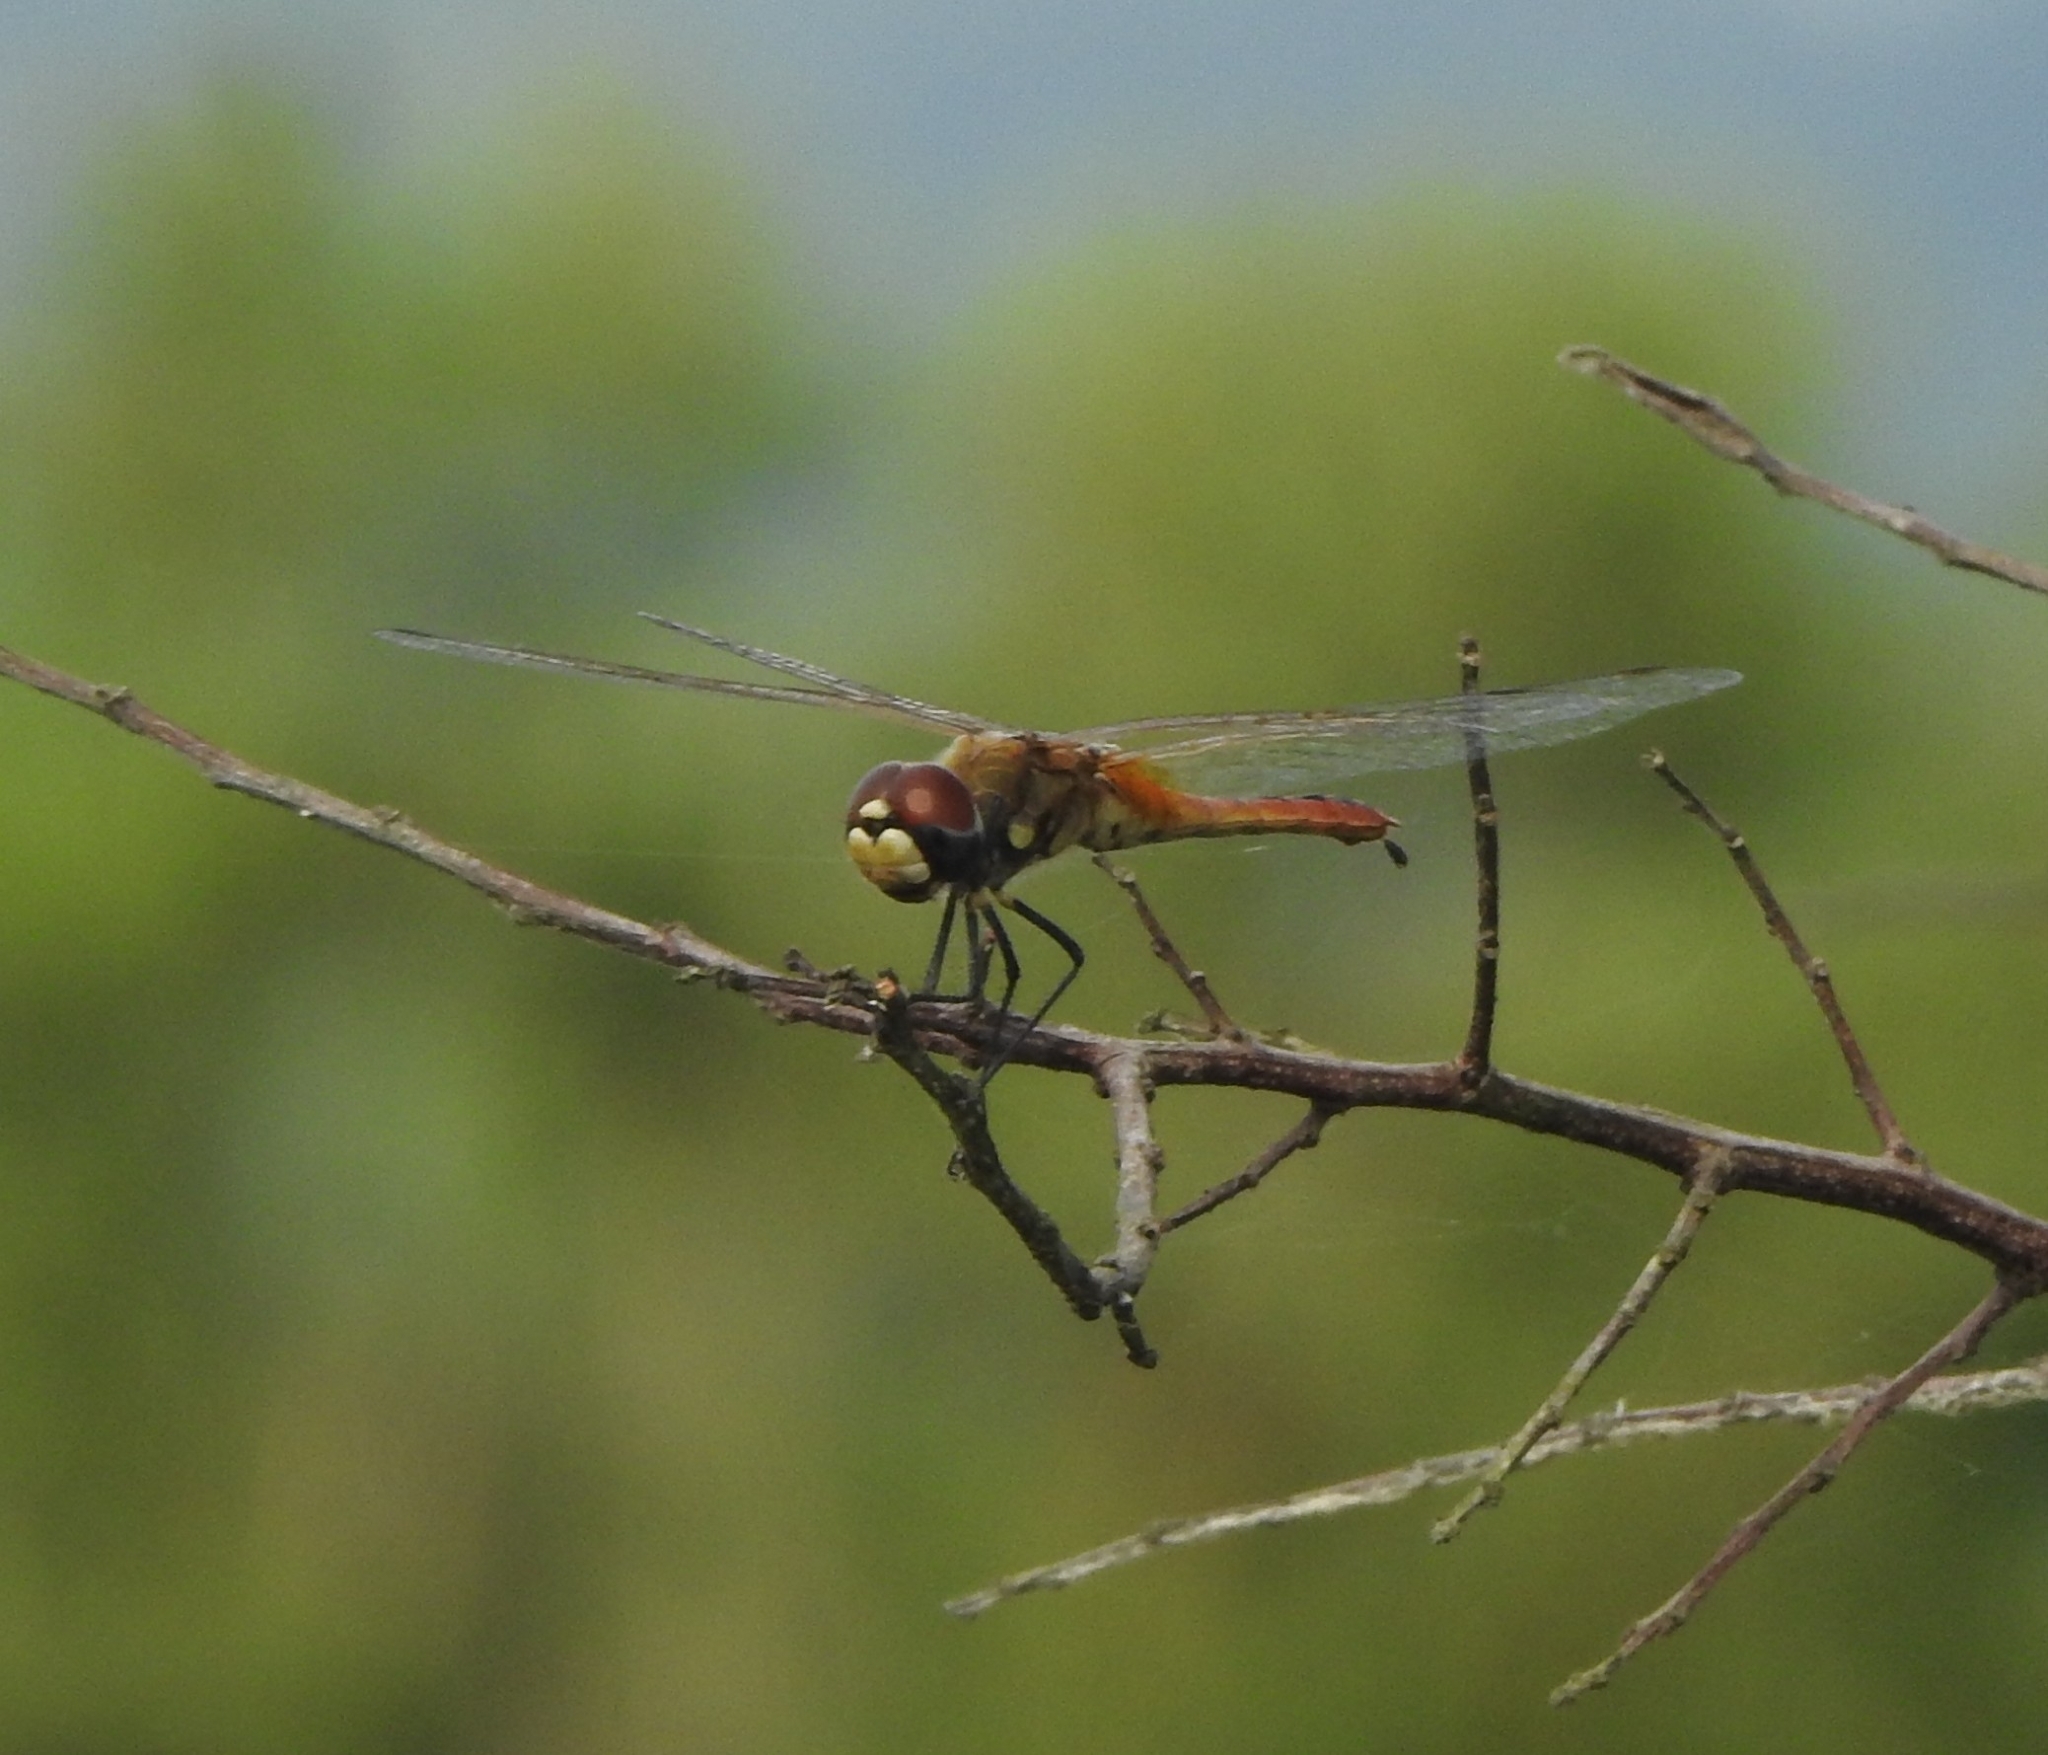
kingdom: Animalia
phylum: Arthropoda
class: Insecta
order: Odonata
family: Libellulidae
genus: Macrodiplax
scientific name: Macrodiplax cora
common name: Coastal glider
